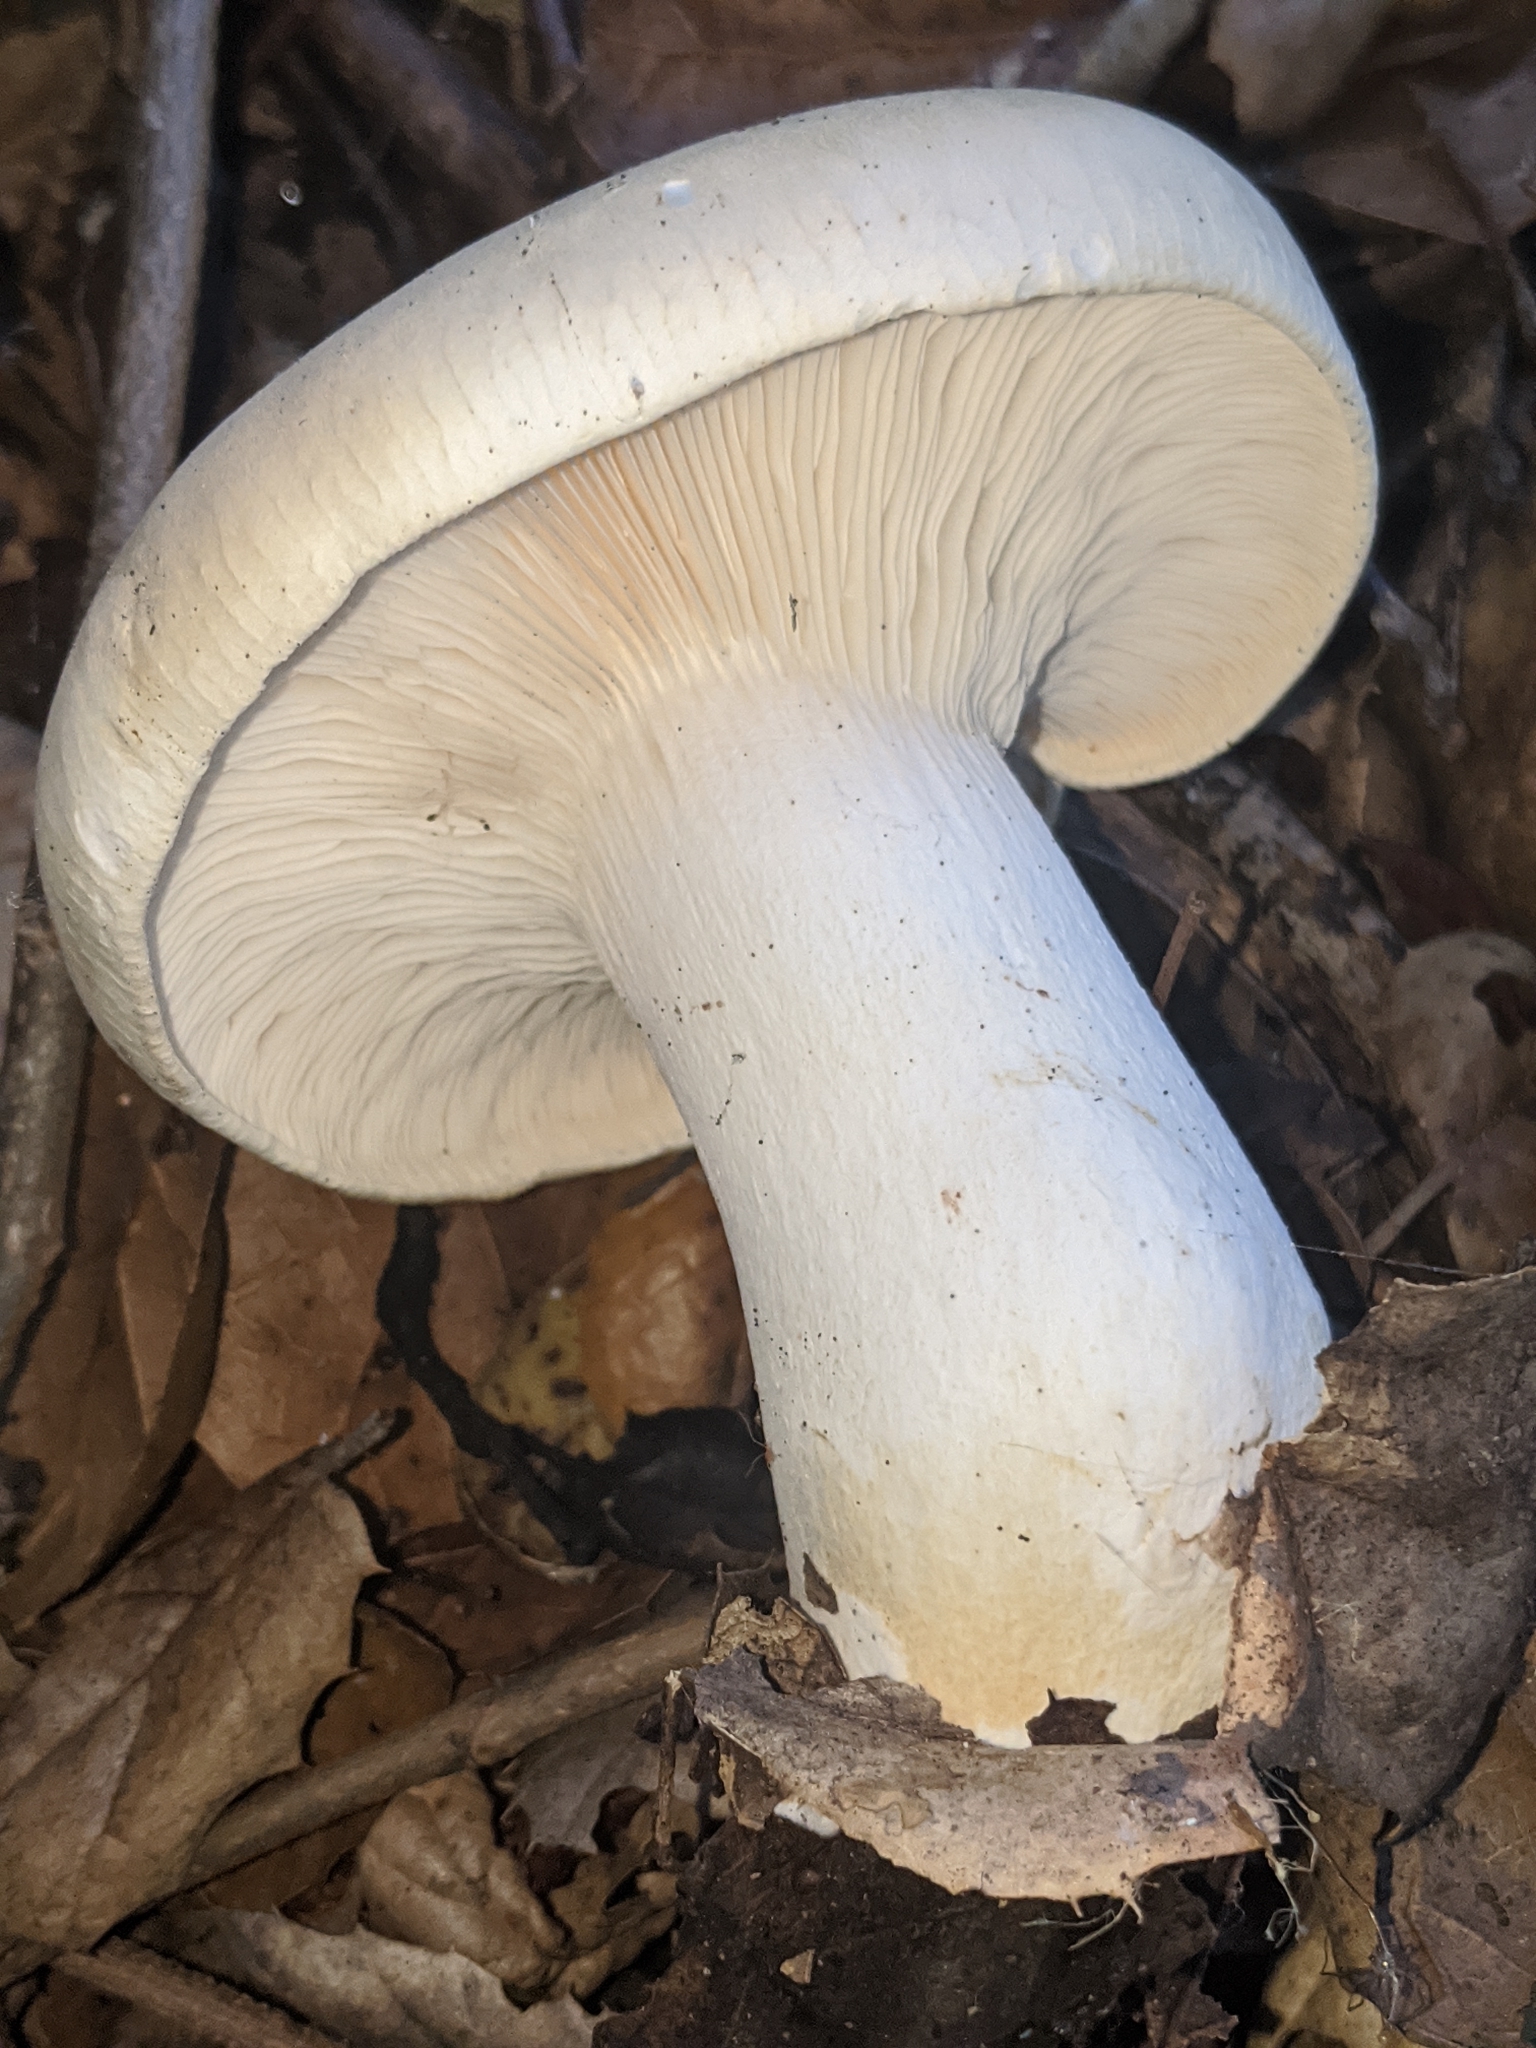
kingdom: Fungi
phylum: Basidiomycota
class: Agaricomycetes
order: Agaricales
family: Tricholomataceae
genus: Leucopaxillus
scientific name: Leucopaxillus albissimus
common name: Large white leucopax
